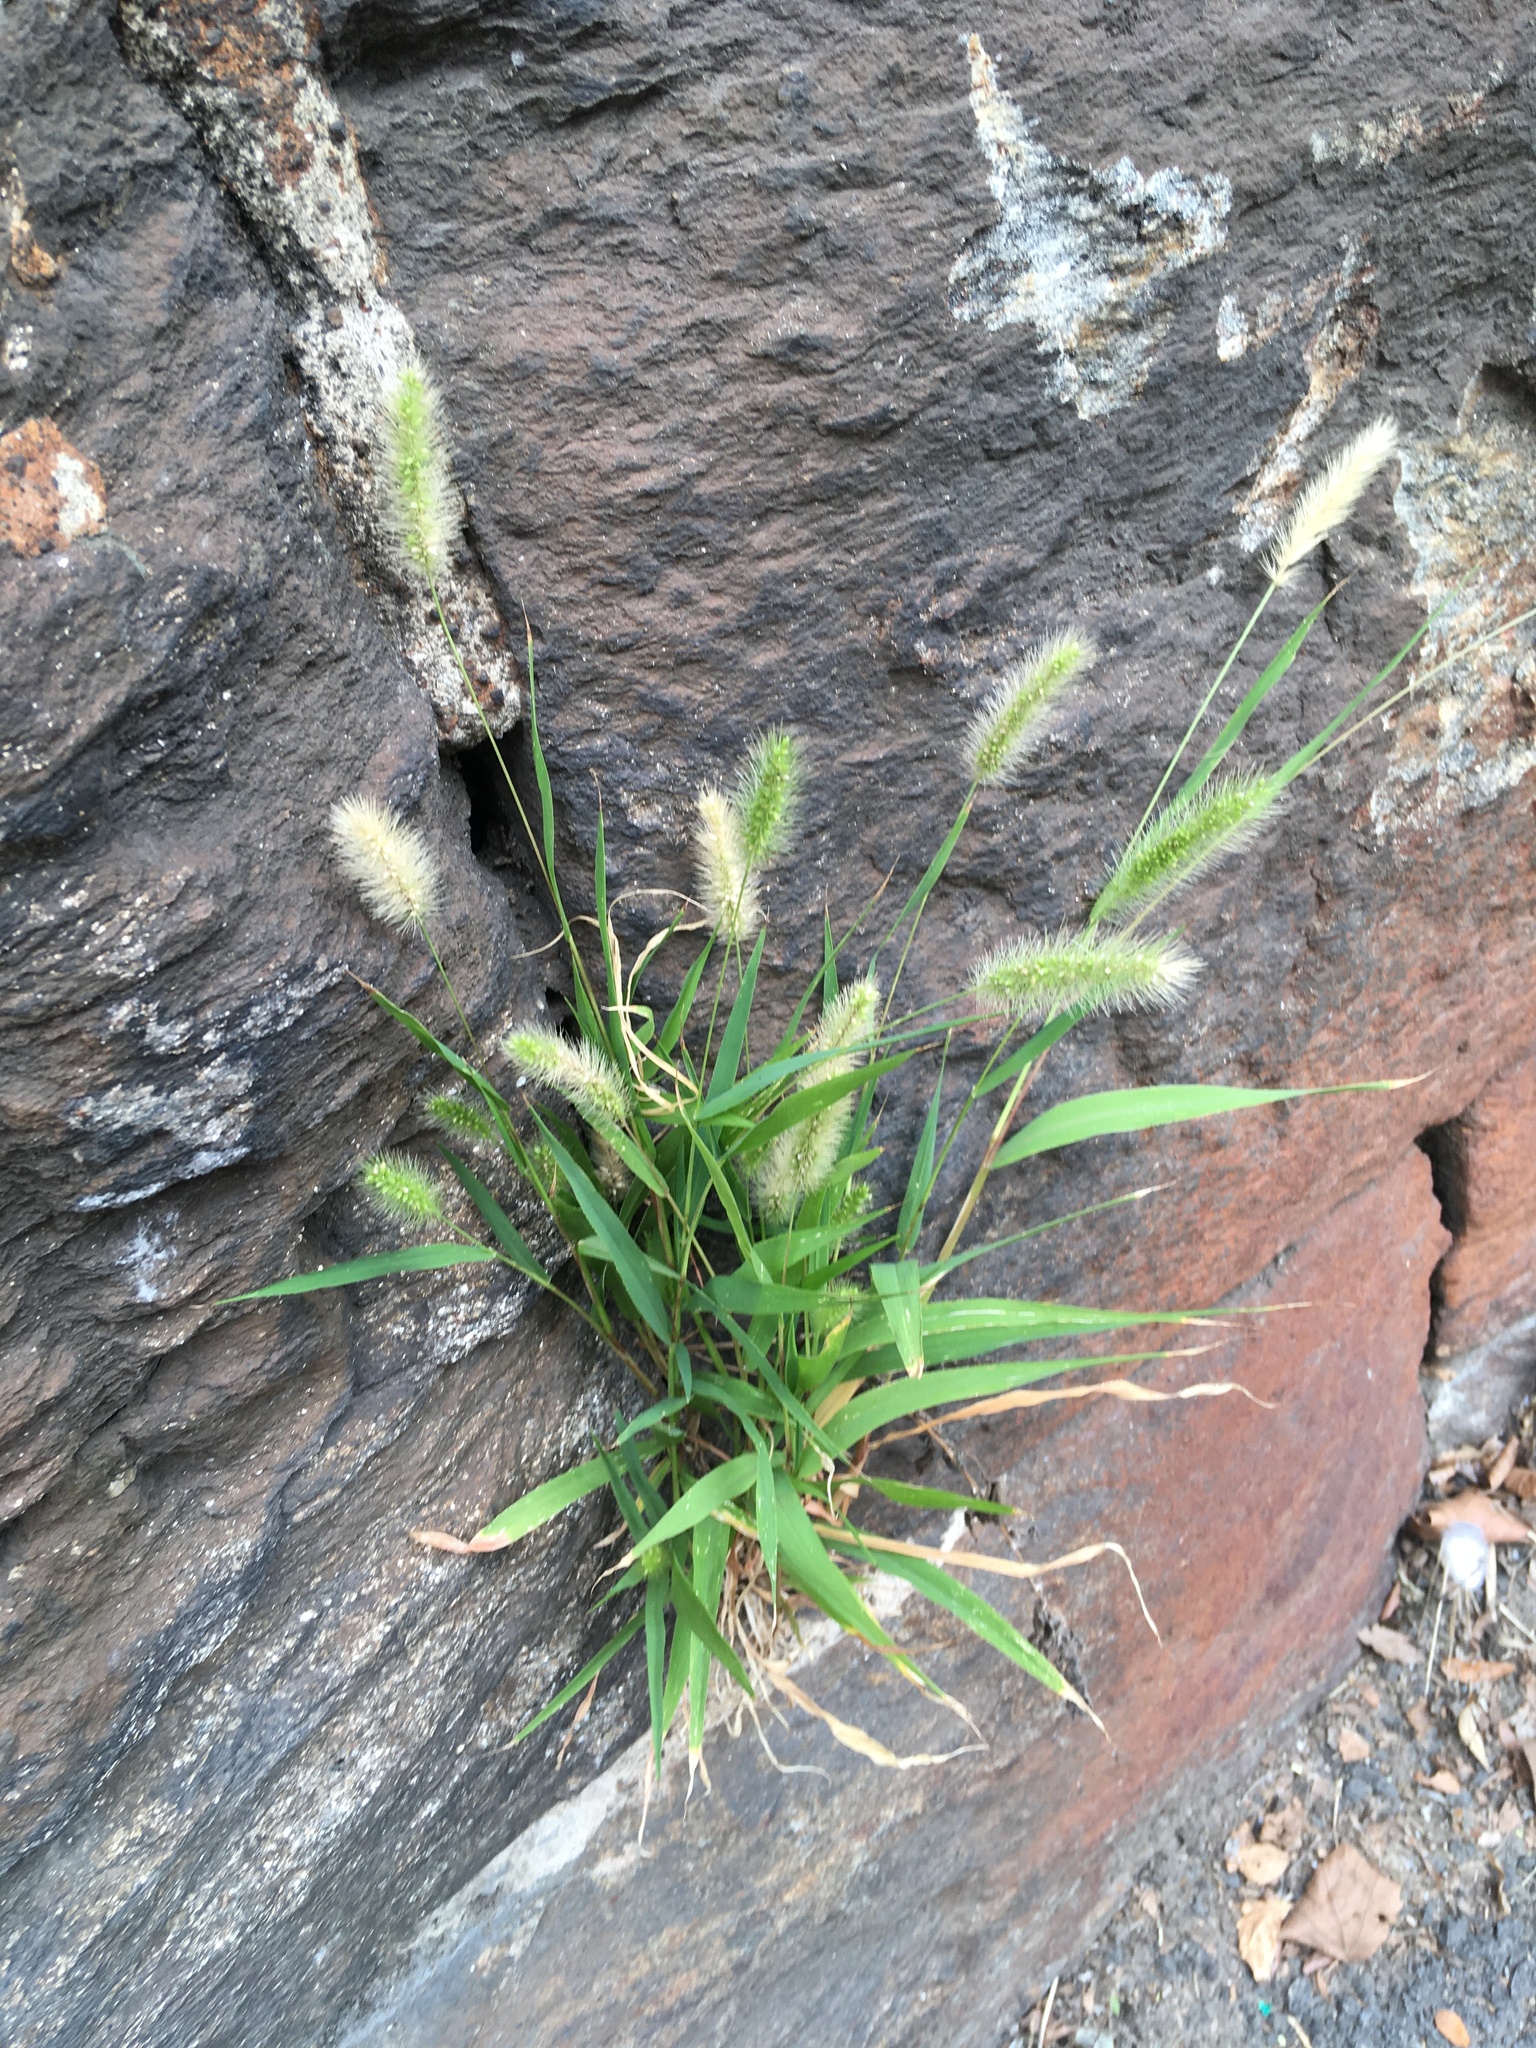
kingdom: Plantae
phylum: Tracheophyta
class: Liliopsida
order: Poales
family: Poaceae
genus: Setaria
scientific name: Setaria viridis
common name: Green bristlegrass
